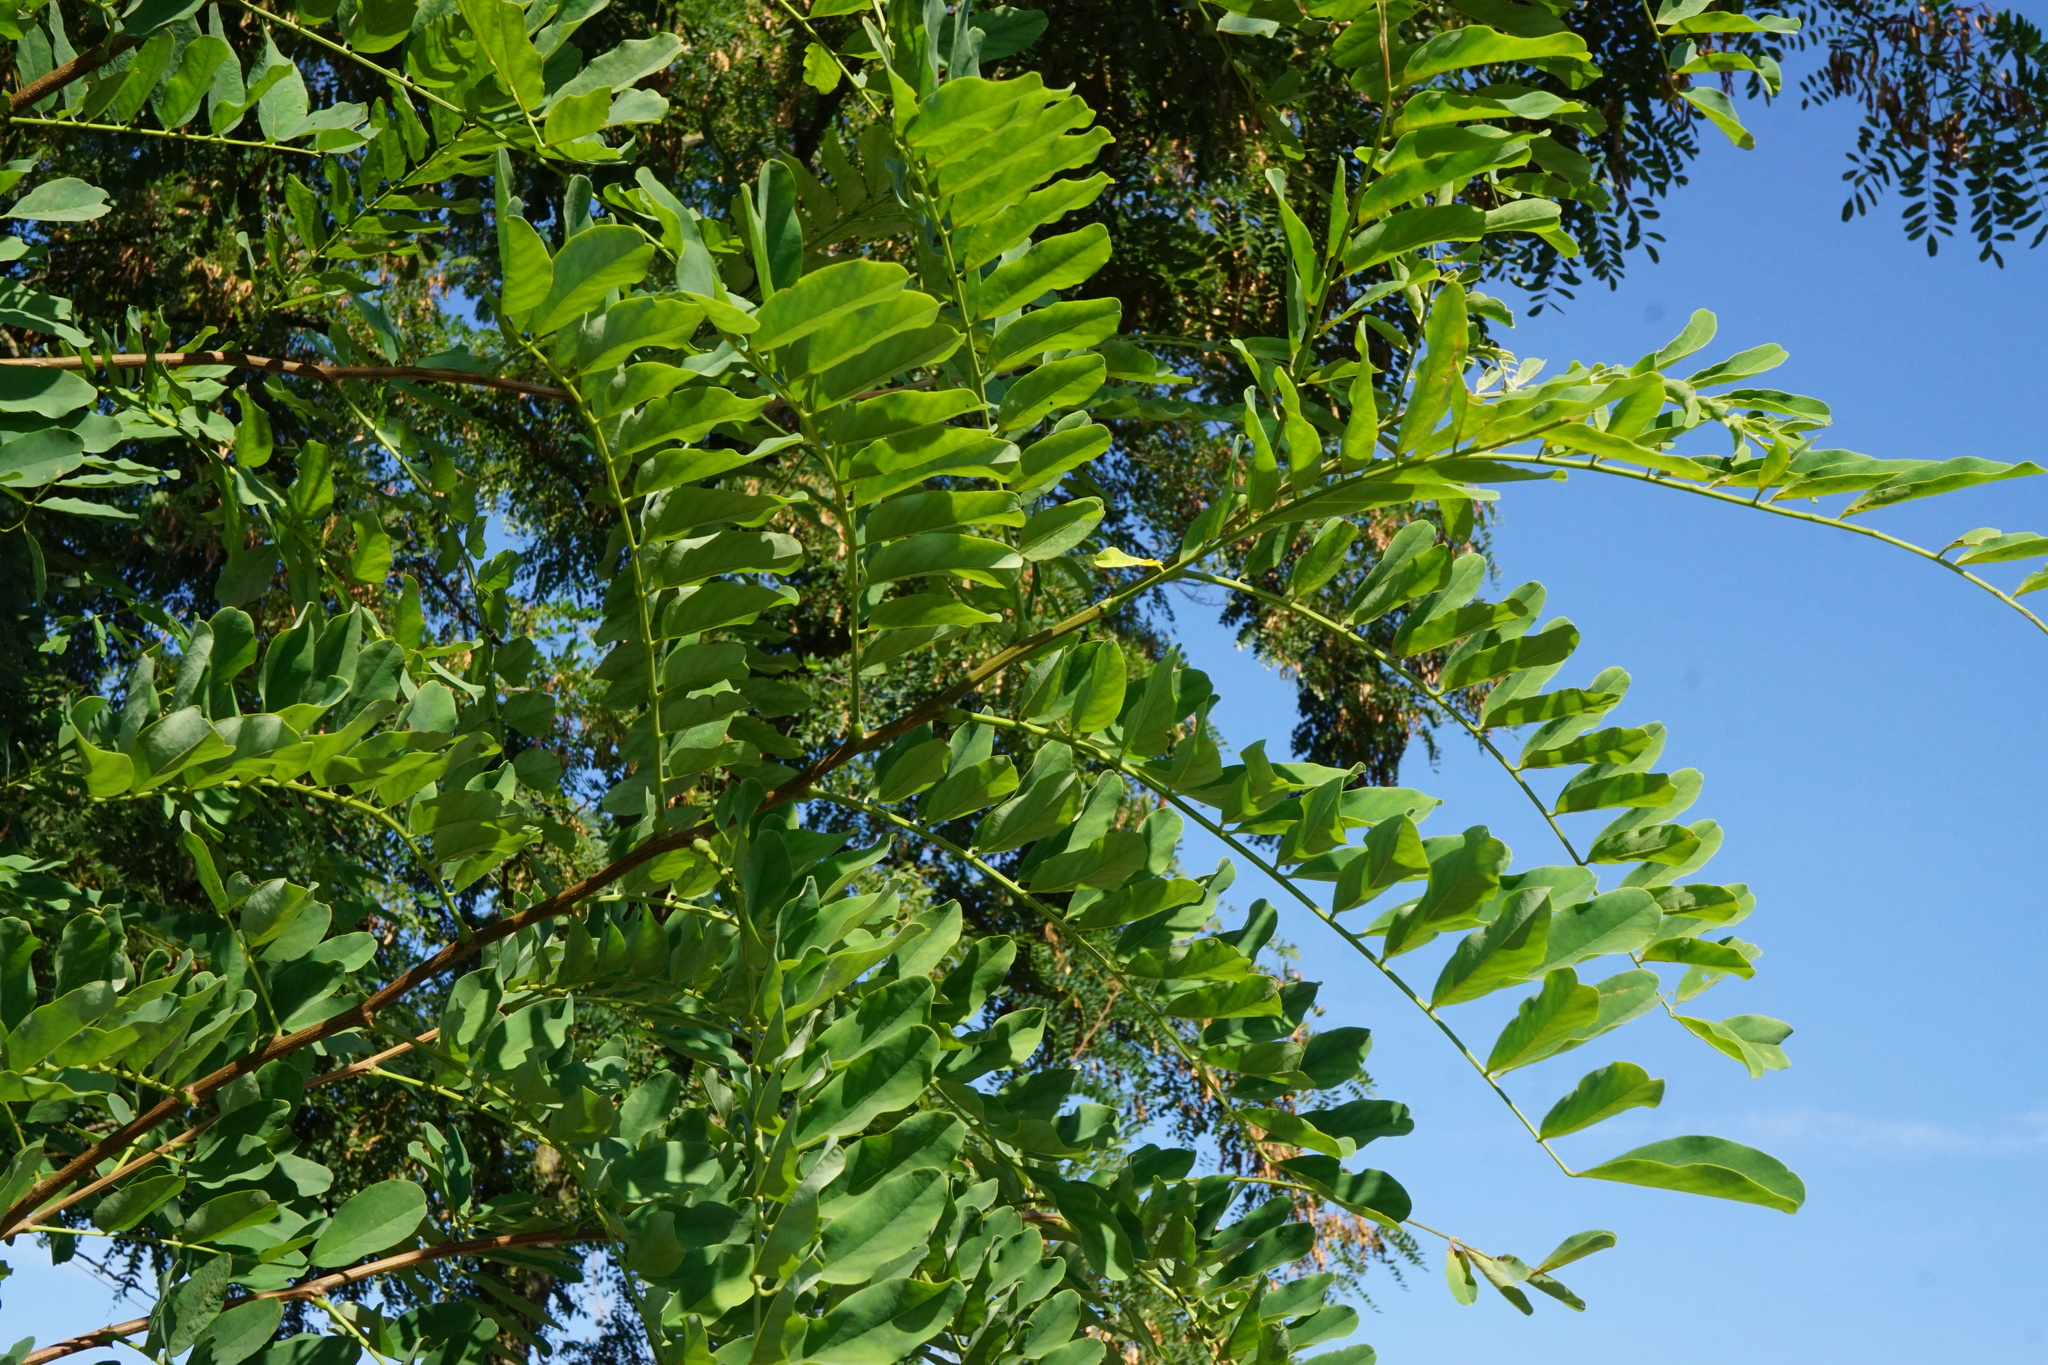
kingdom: Plantae
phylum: Tracheophyta
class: Magnoliopsida
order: Fabales
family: Fabaceae
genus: Robinia
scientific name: Robinia pseudoacacia
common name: Black locust
